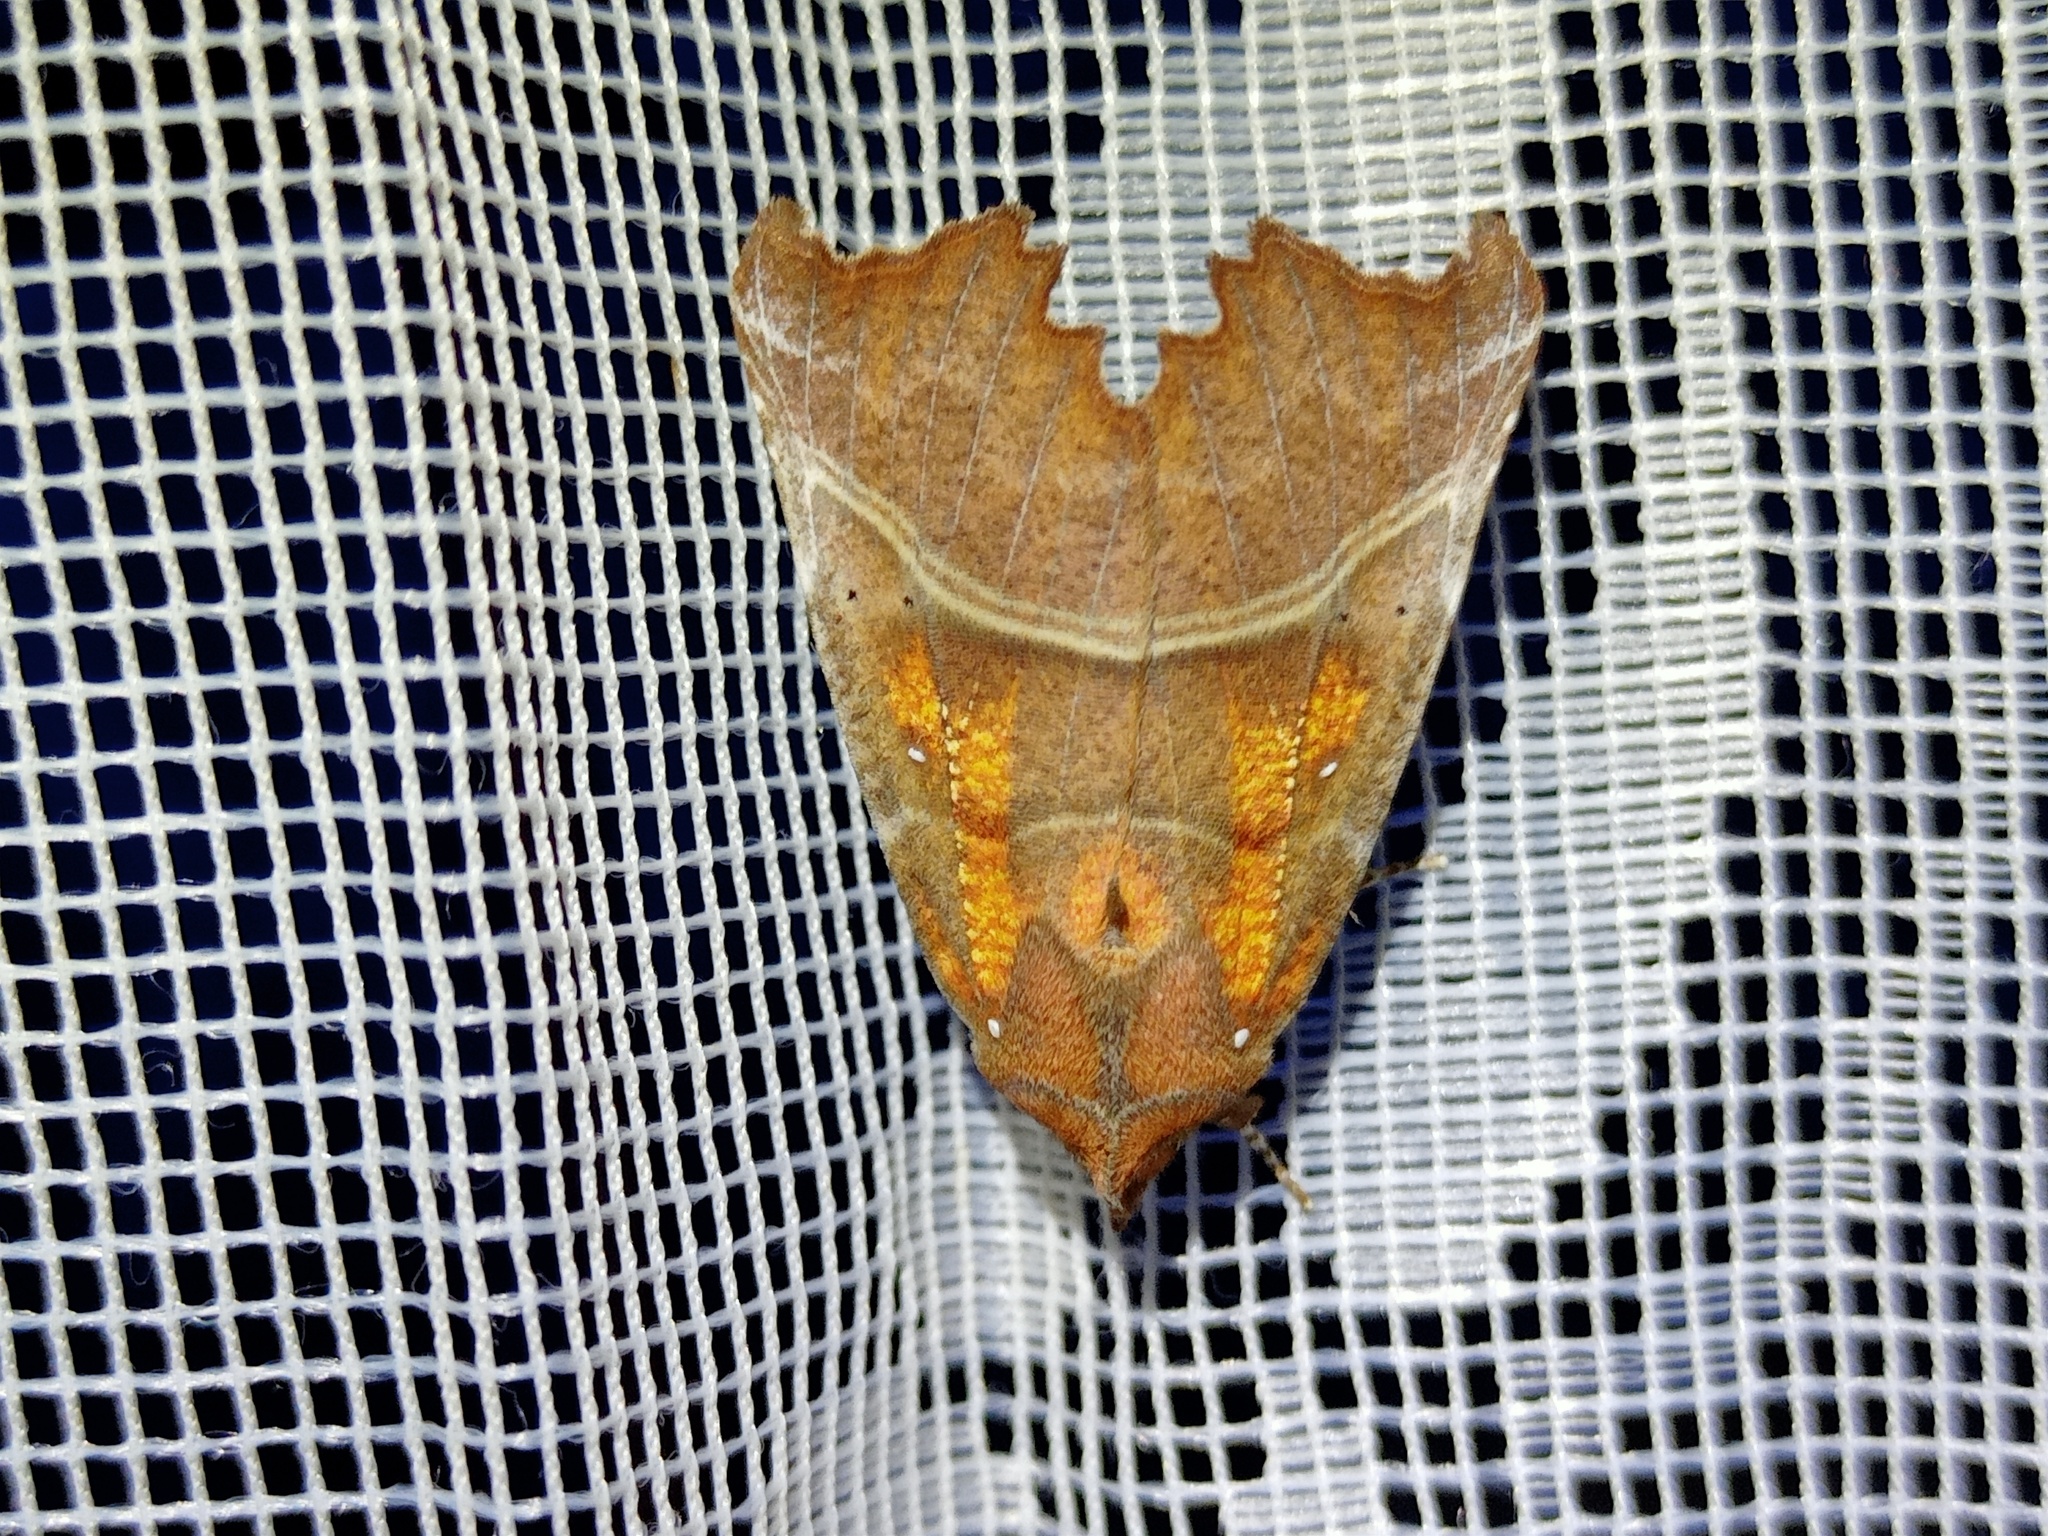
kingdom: Animalia
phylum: Arthropoda
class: Insecta
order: Lepidoptera
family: Erebidae
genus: Scoliopteryx
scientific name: Scoliopteryx libatrix
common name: Herald
